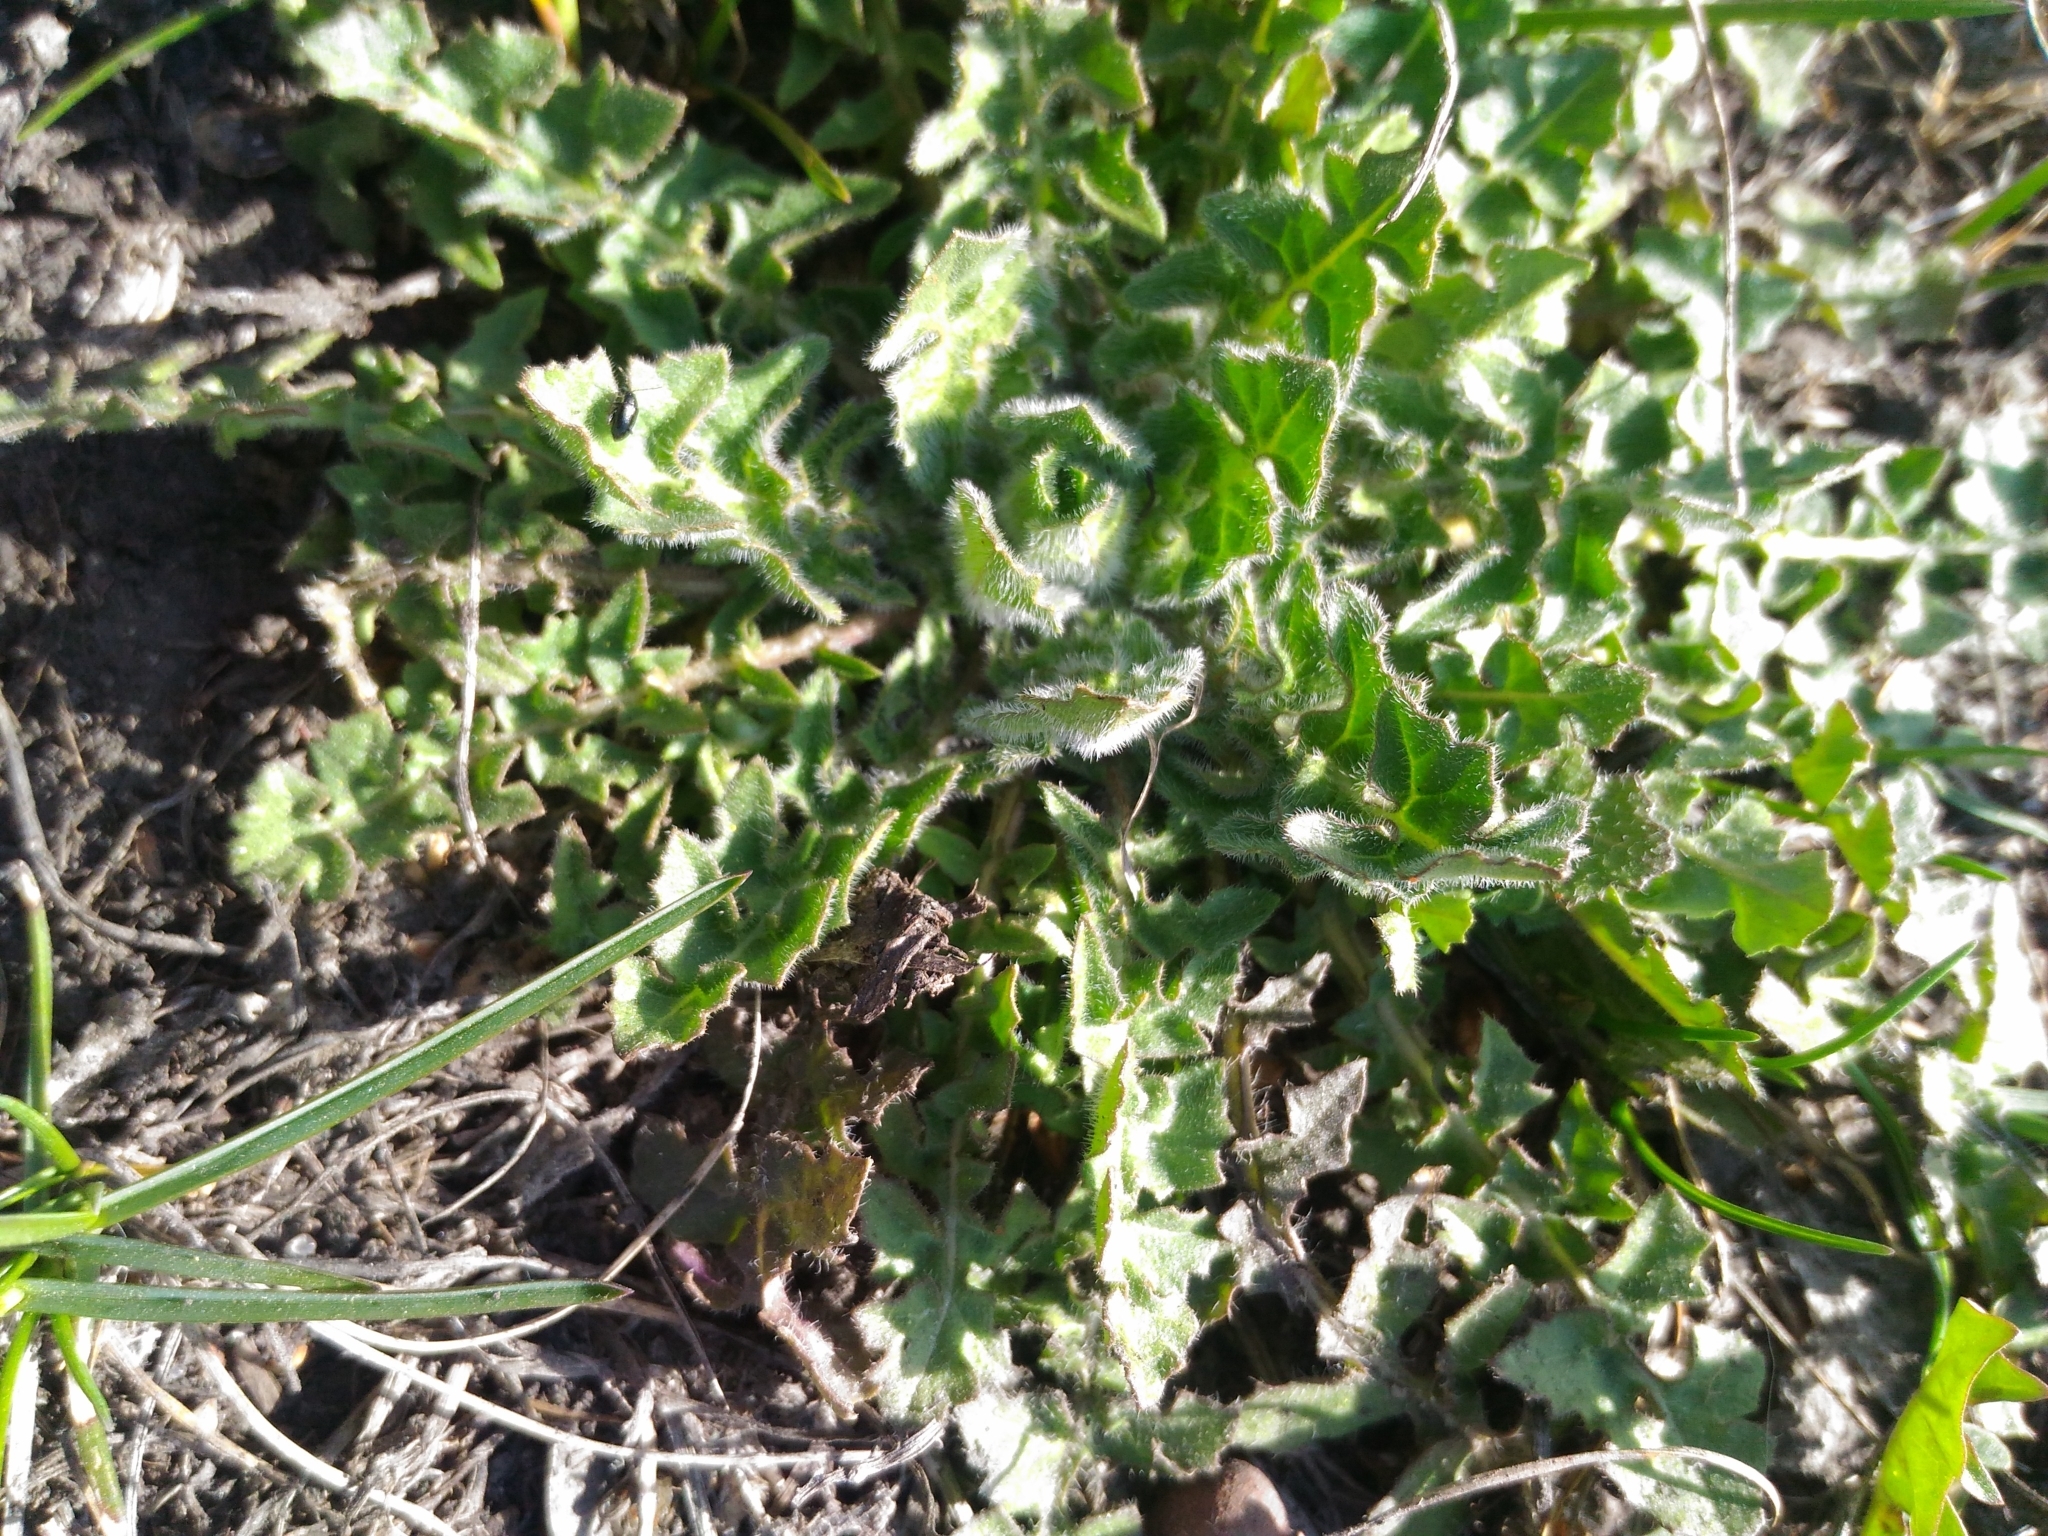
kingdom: Plantae
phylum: Tracheophyta
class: Magnoliopsida
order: Brassicales
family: Brassicaceae
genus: Sisymbrium
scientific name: Sisymbrium loeselii
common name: False london-rocket
